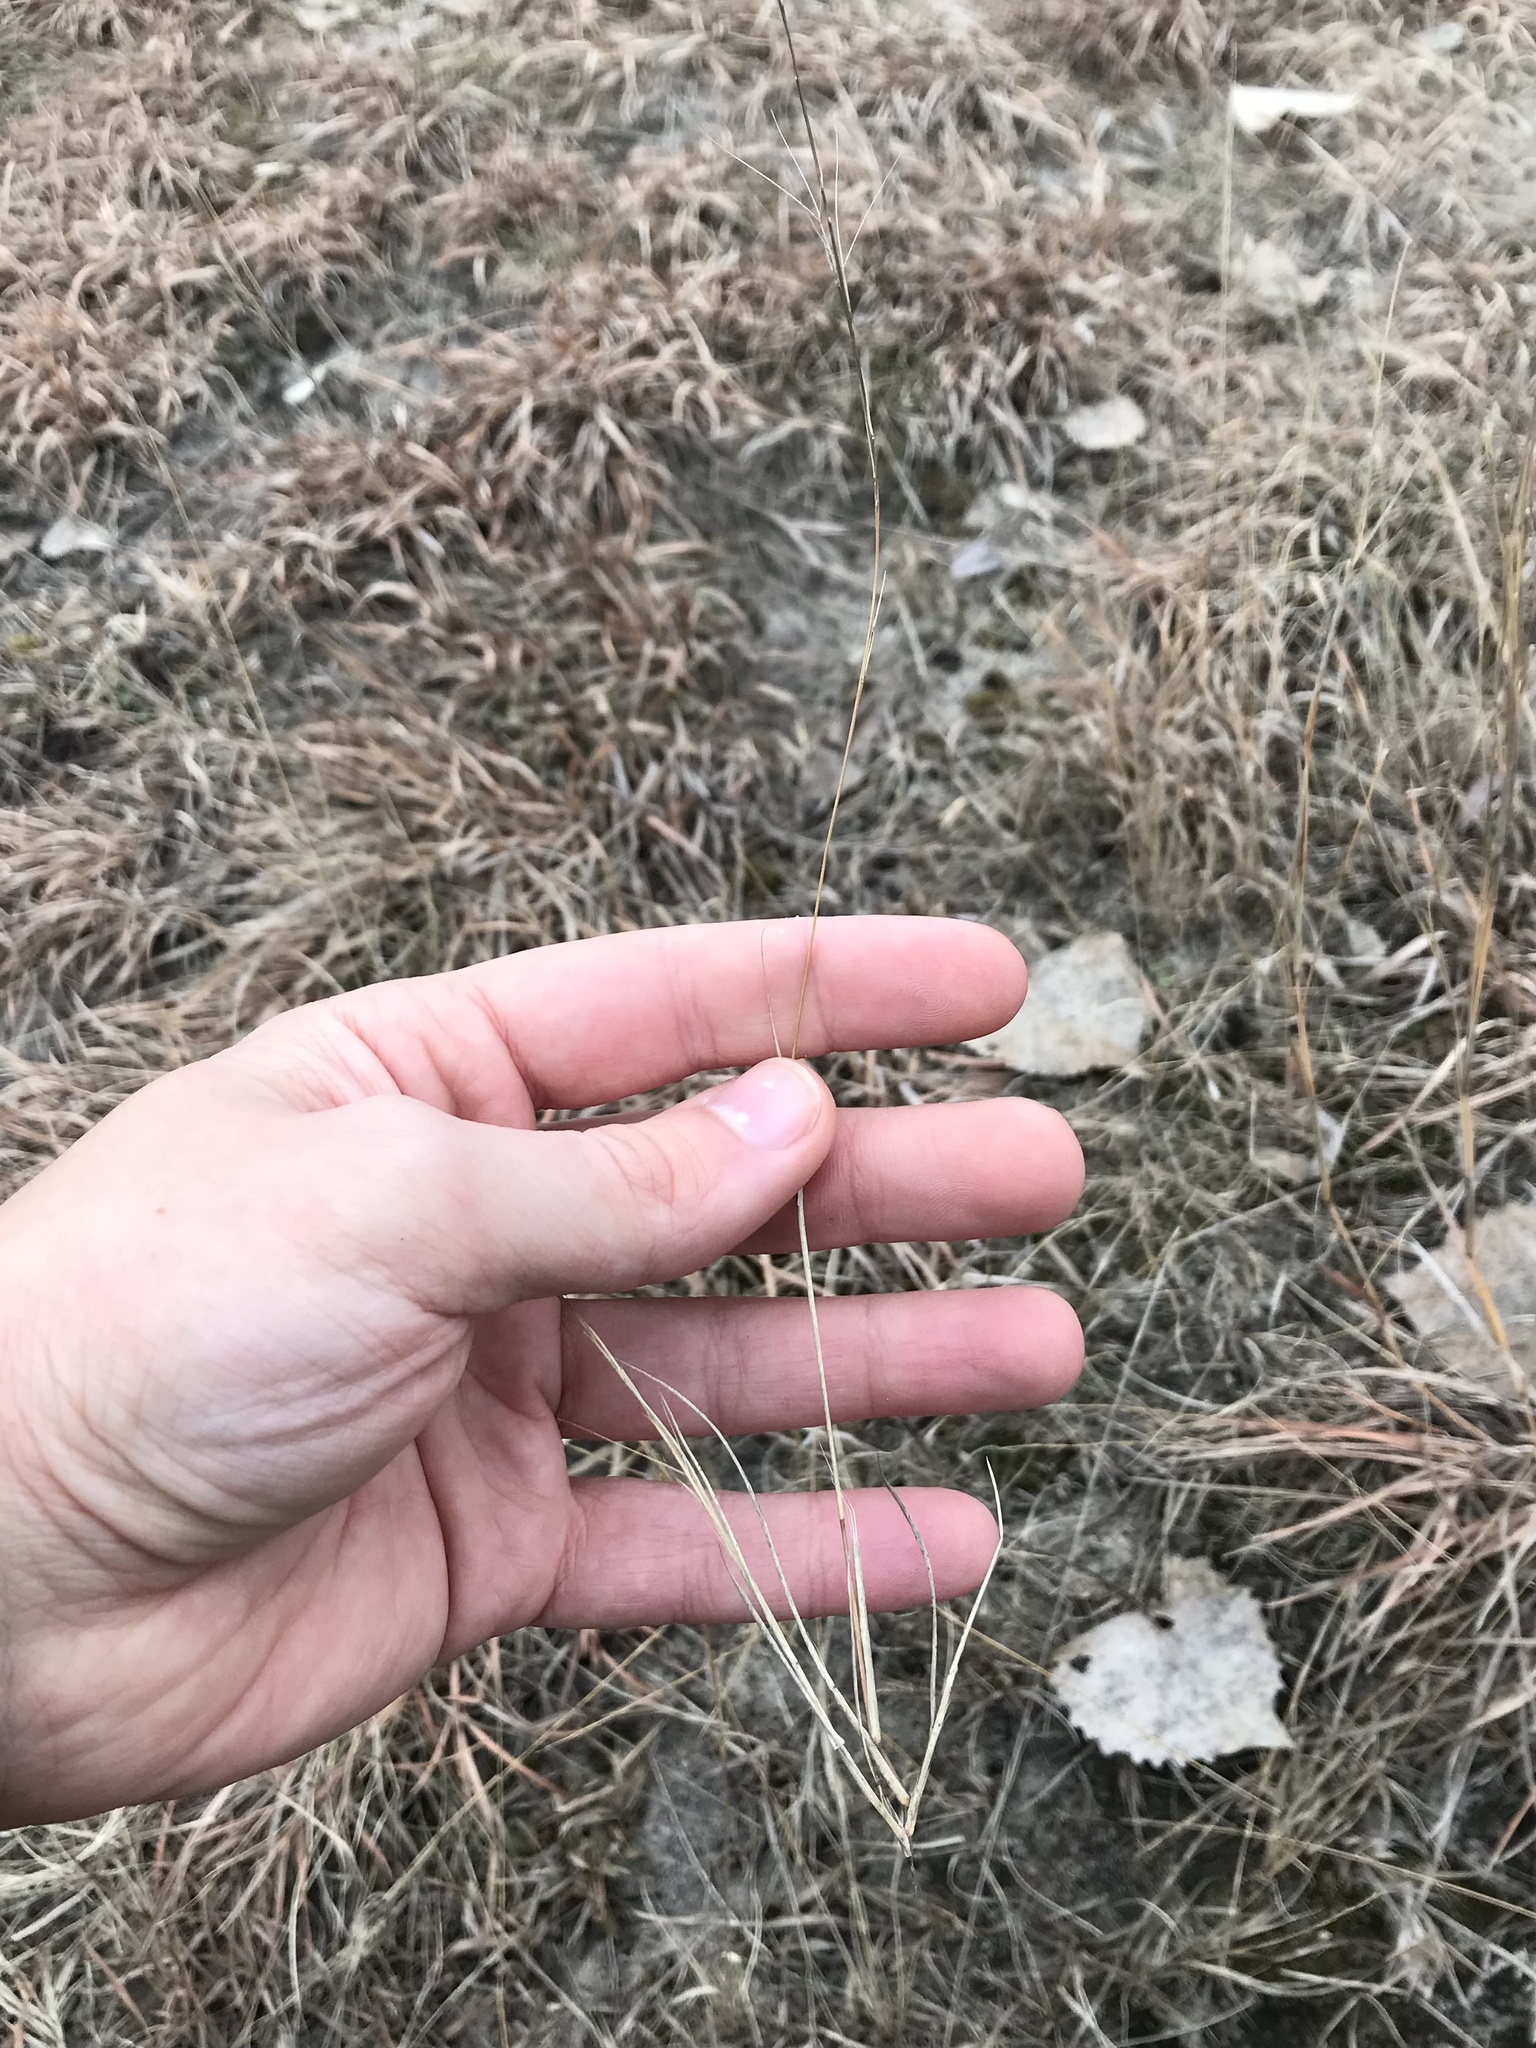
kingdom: Plantae
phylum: Tracheophyta
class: Liliopsida
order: Poales
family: Poaceae
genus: Aristida
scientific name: Aristida longespica
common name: Long-spiked triple-awned grass
